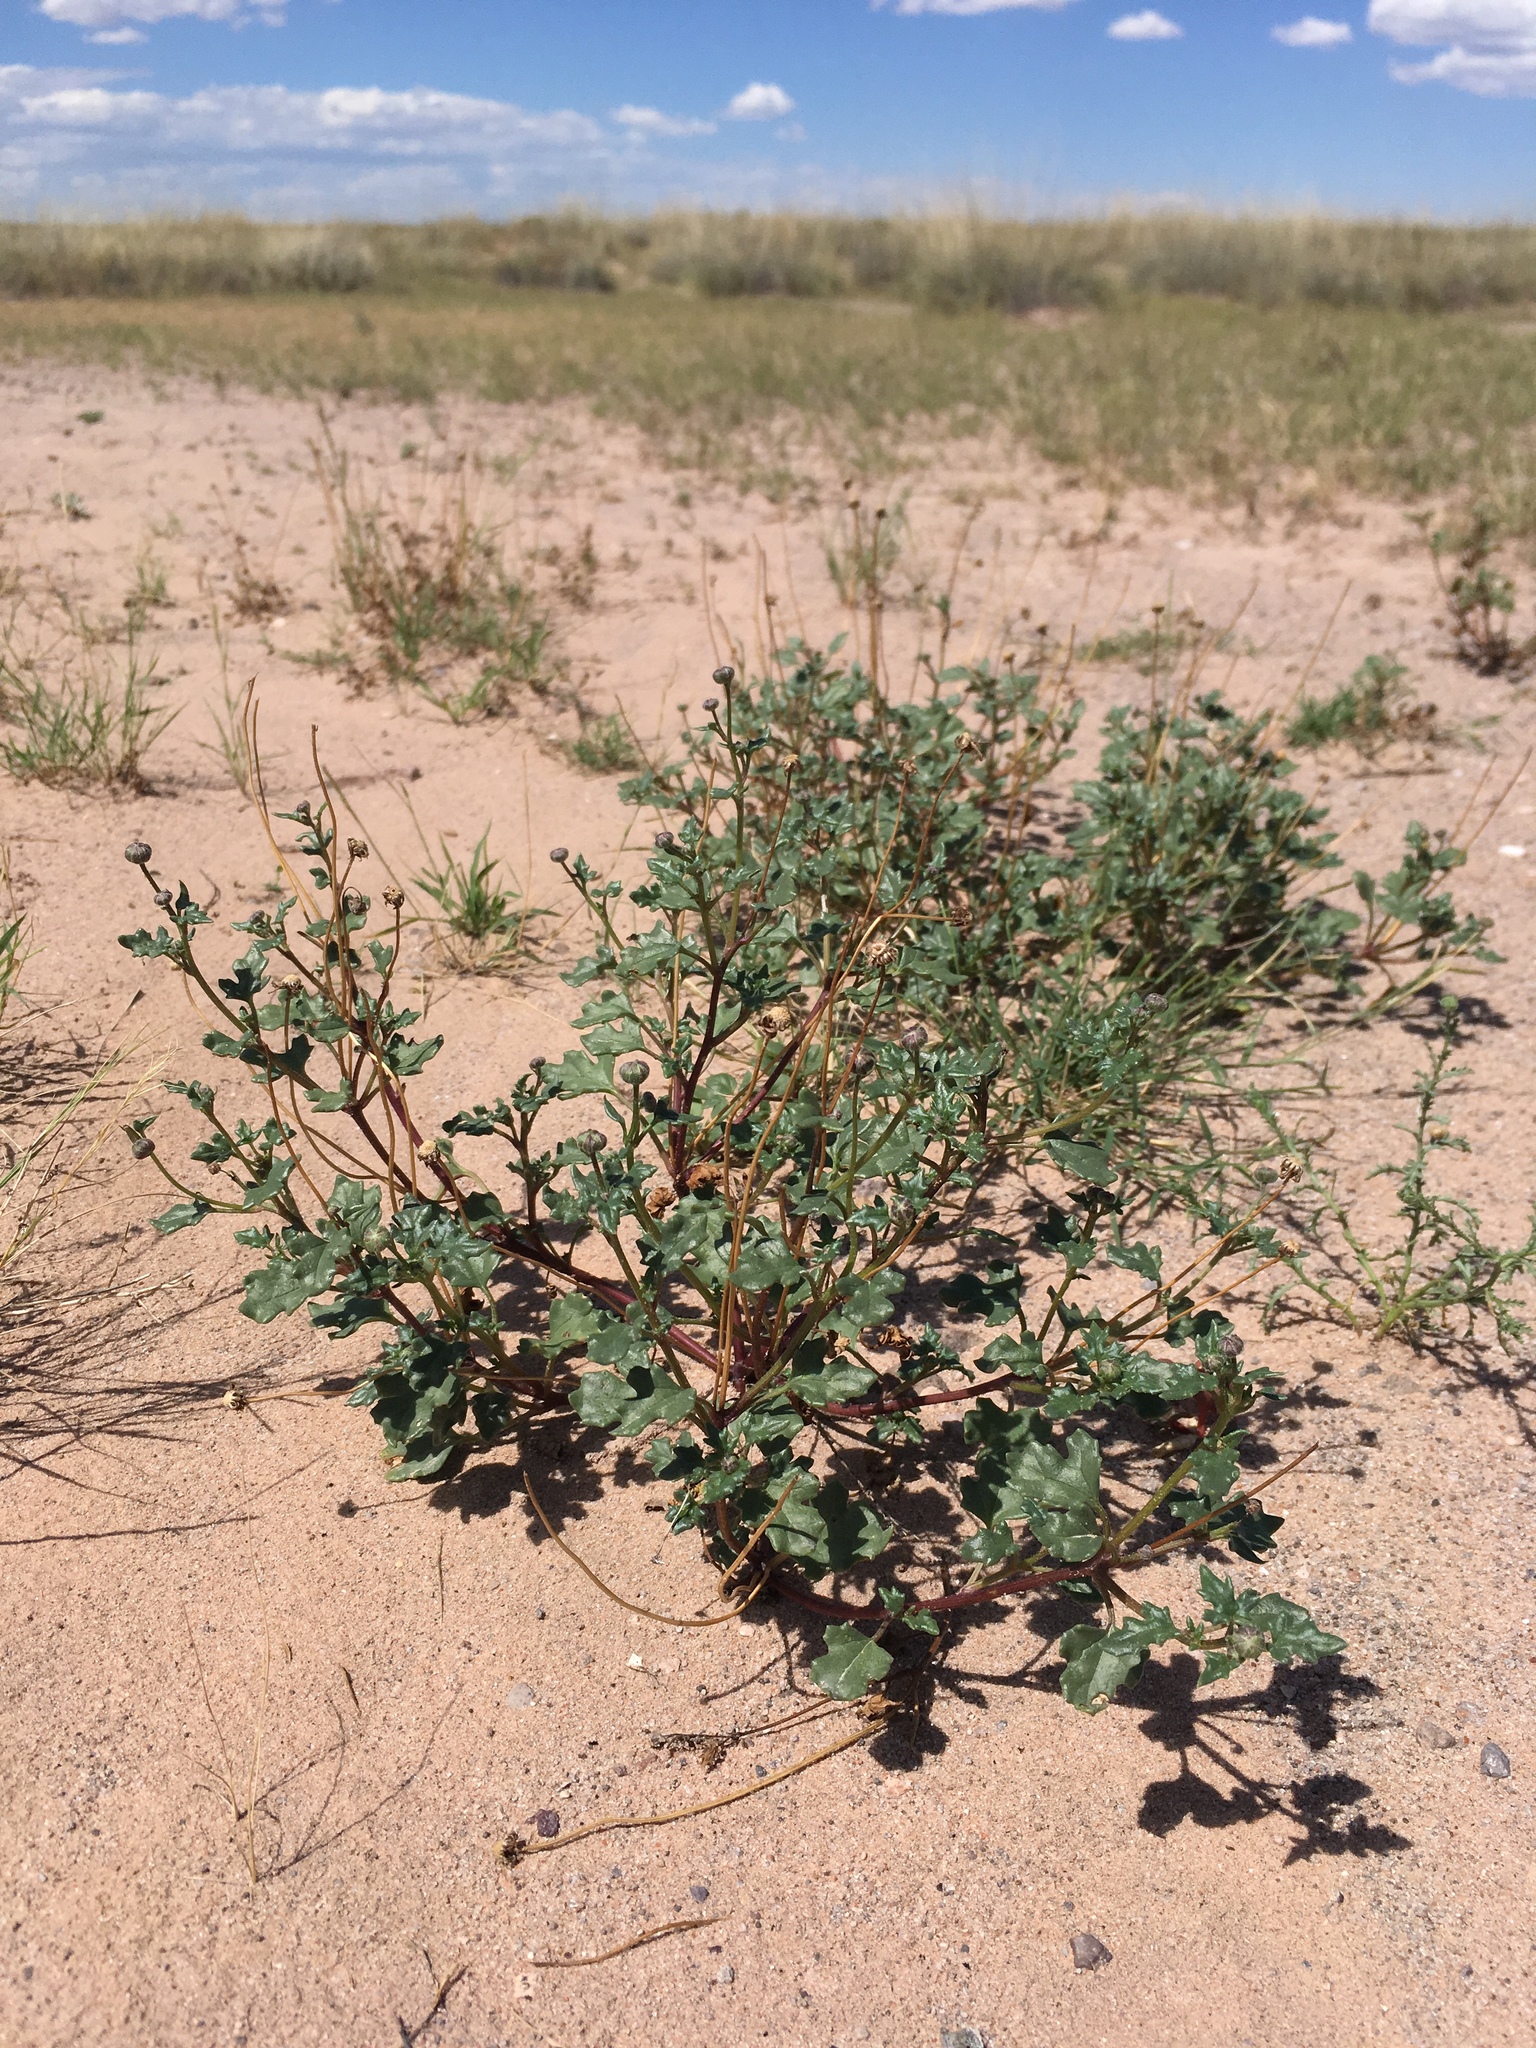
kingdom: Plantae
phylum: Tracheophyta
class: Magnoliopsida
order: Asterales
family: Asteraceae
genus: Bartlettia
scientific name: Bartlettia scaposa
